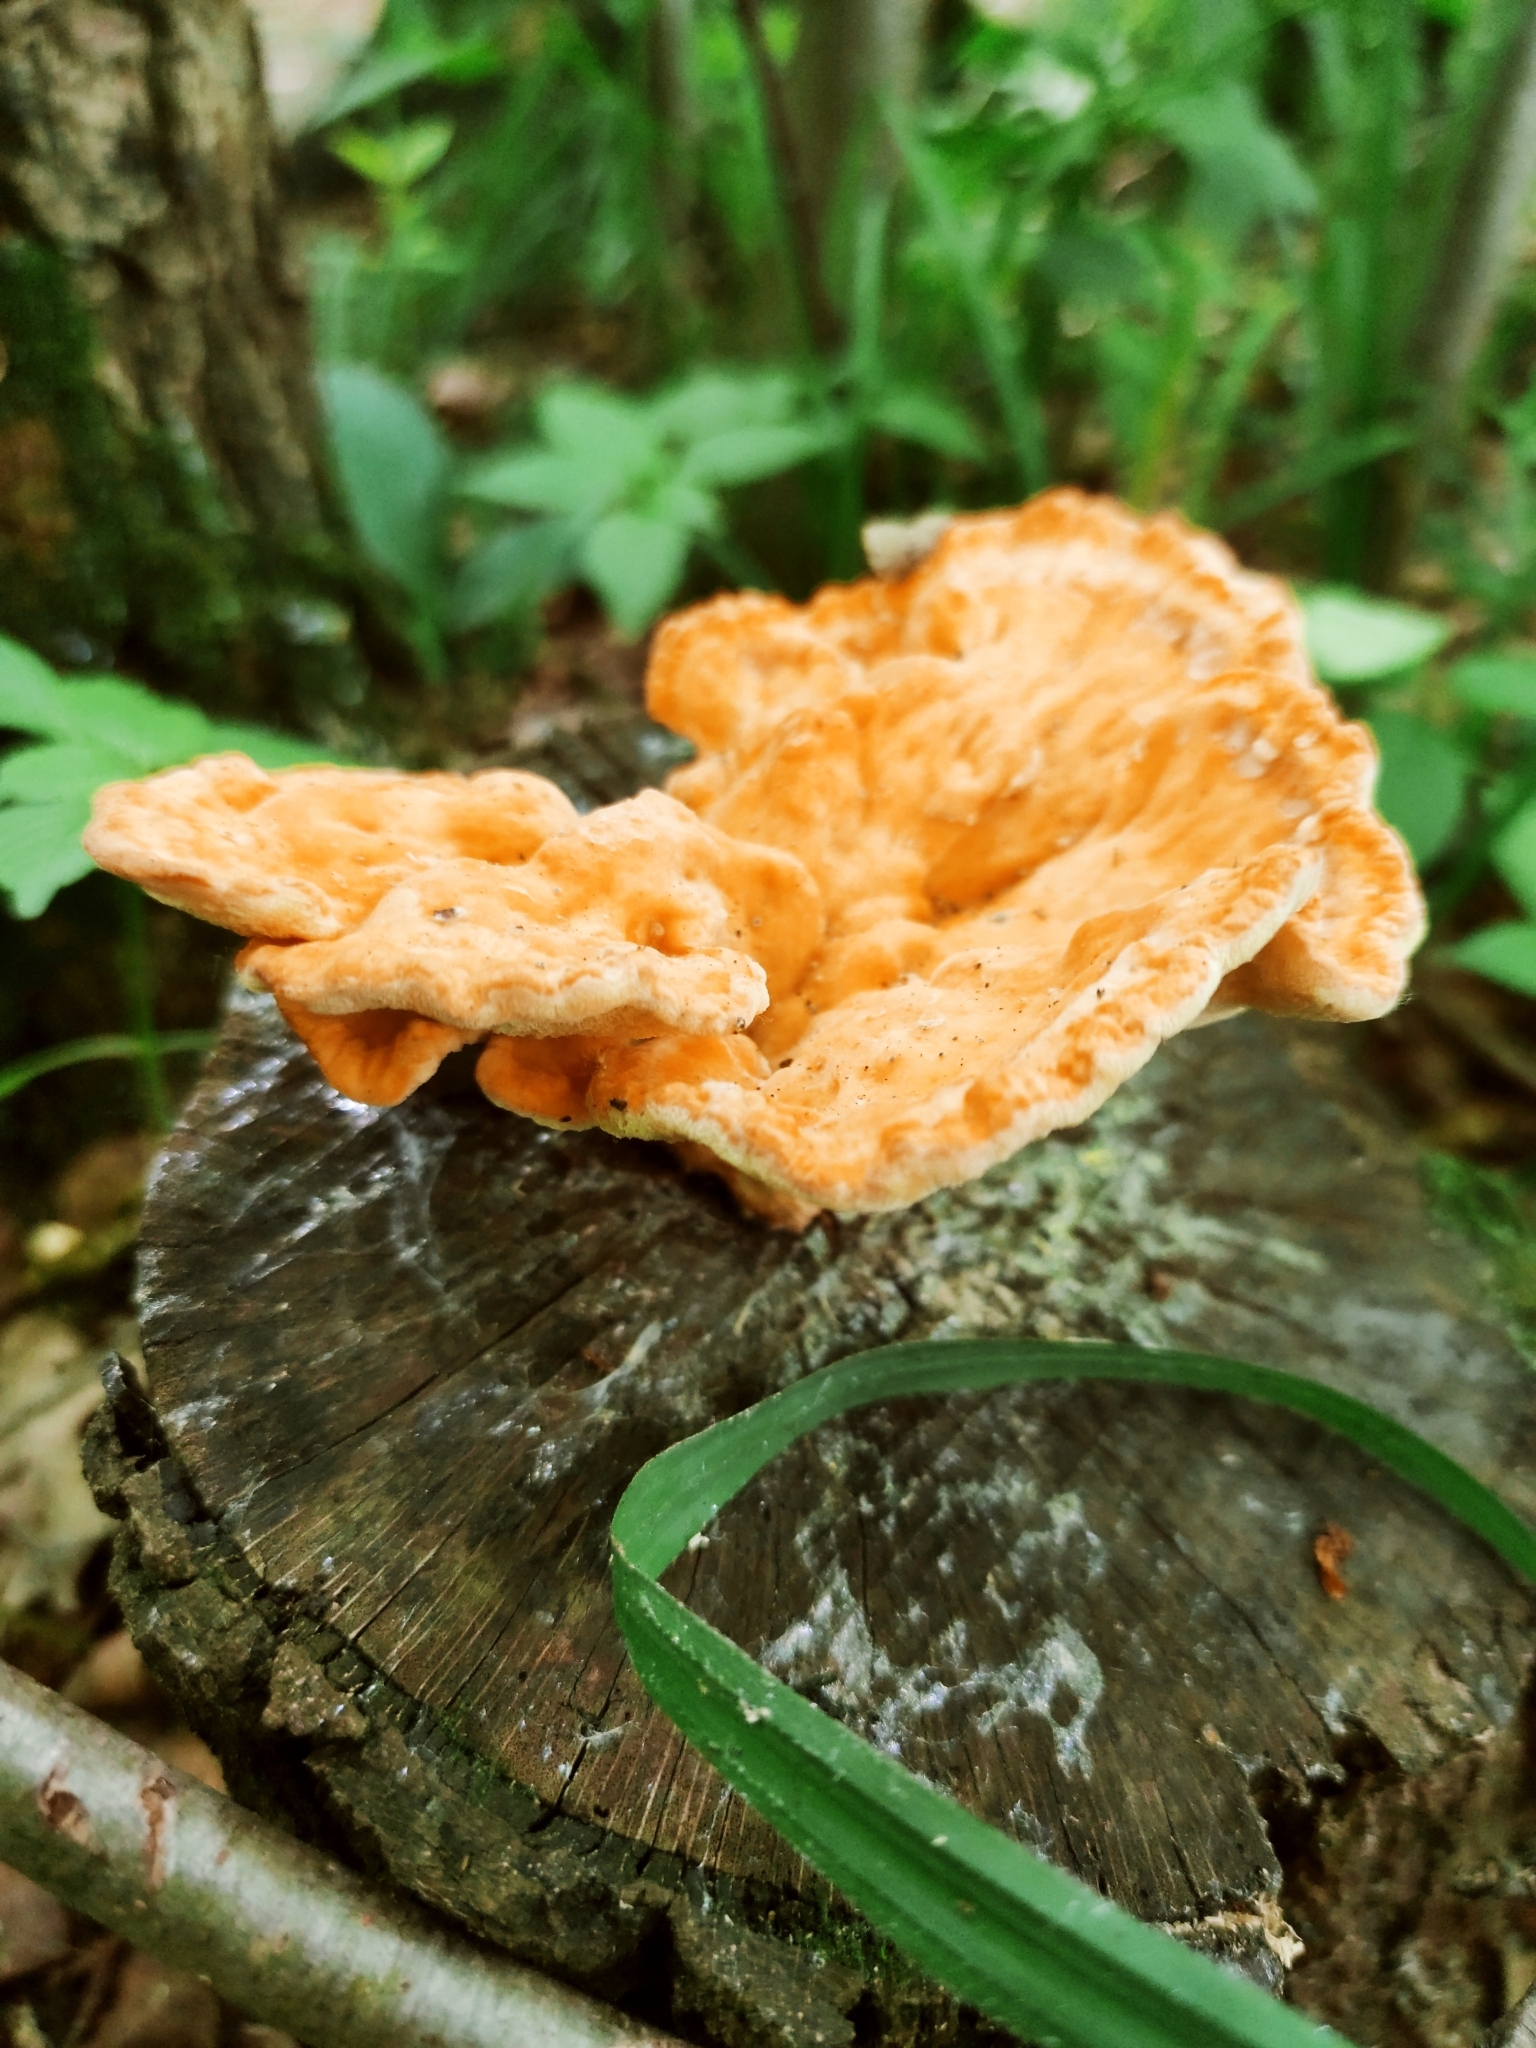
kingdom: Fungi
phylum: Basidiomycota
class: Agaricomycetes
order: Polyporales
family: Laetiporaceae
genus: Laetiporus
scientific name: Laetiporus sulphureus
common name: Chicken of the woods
